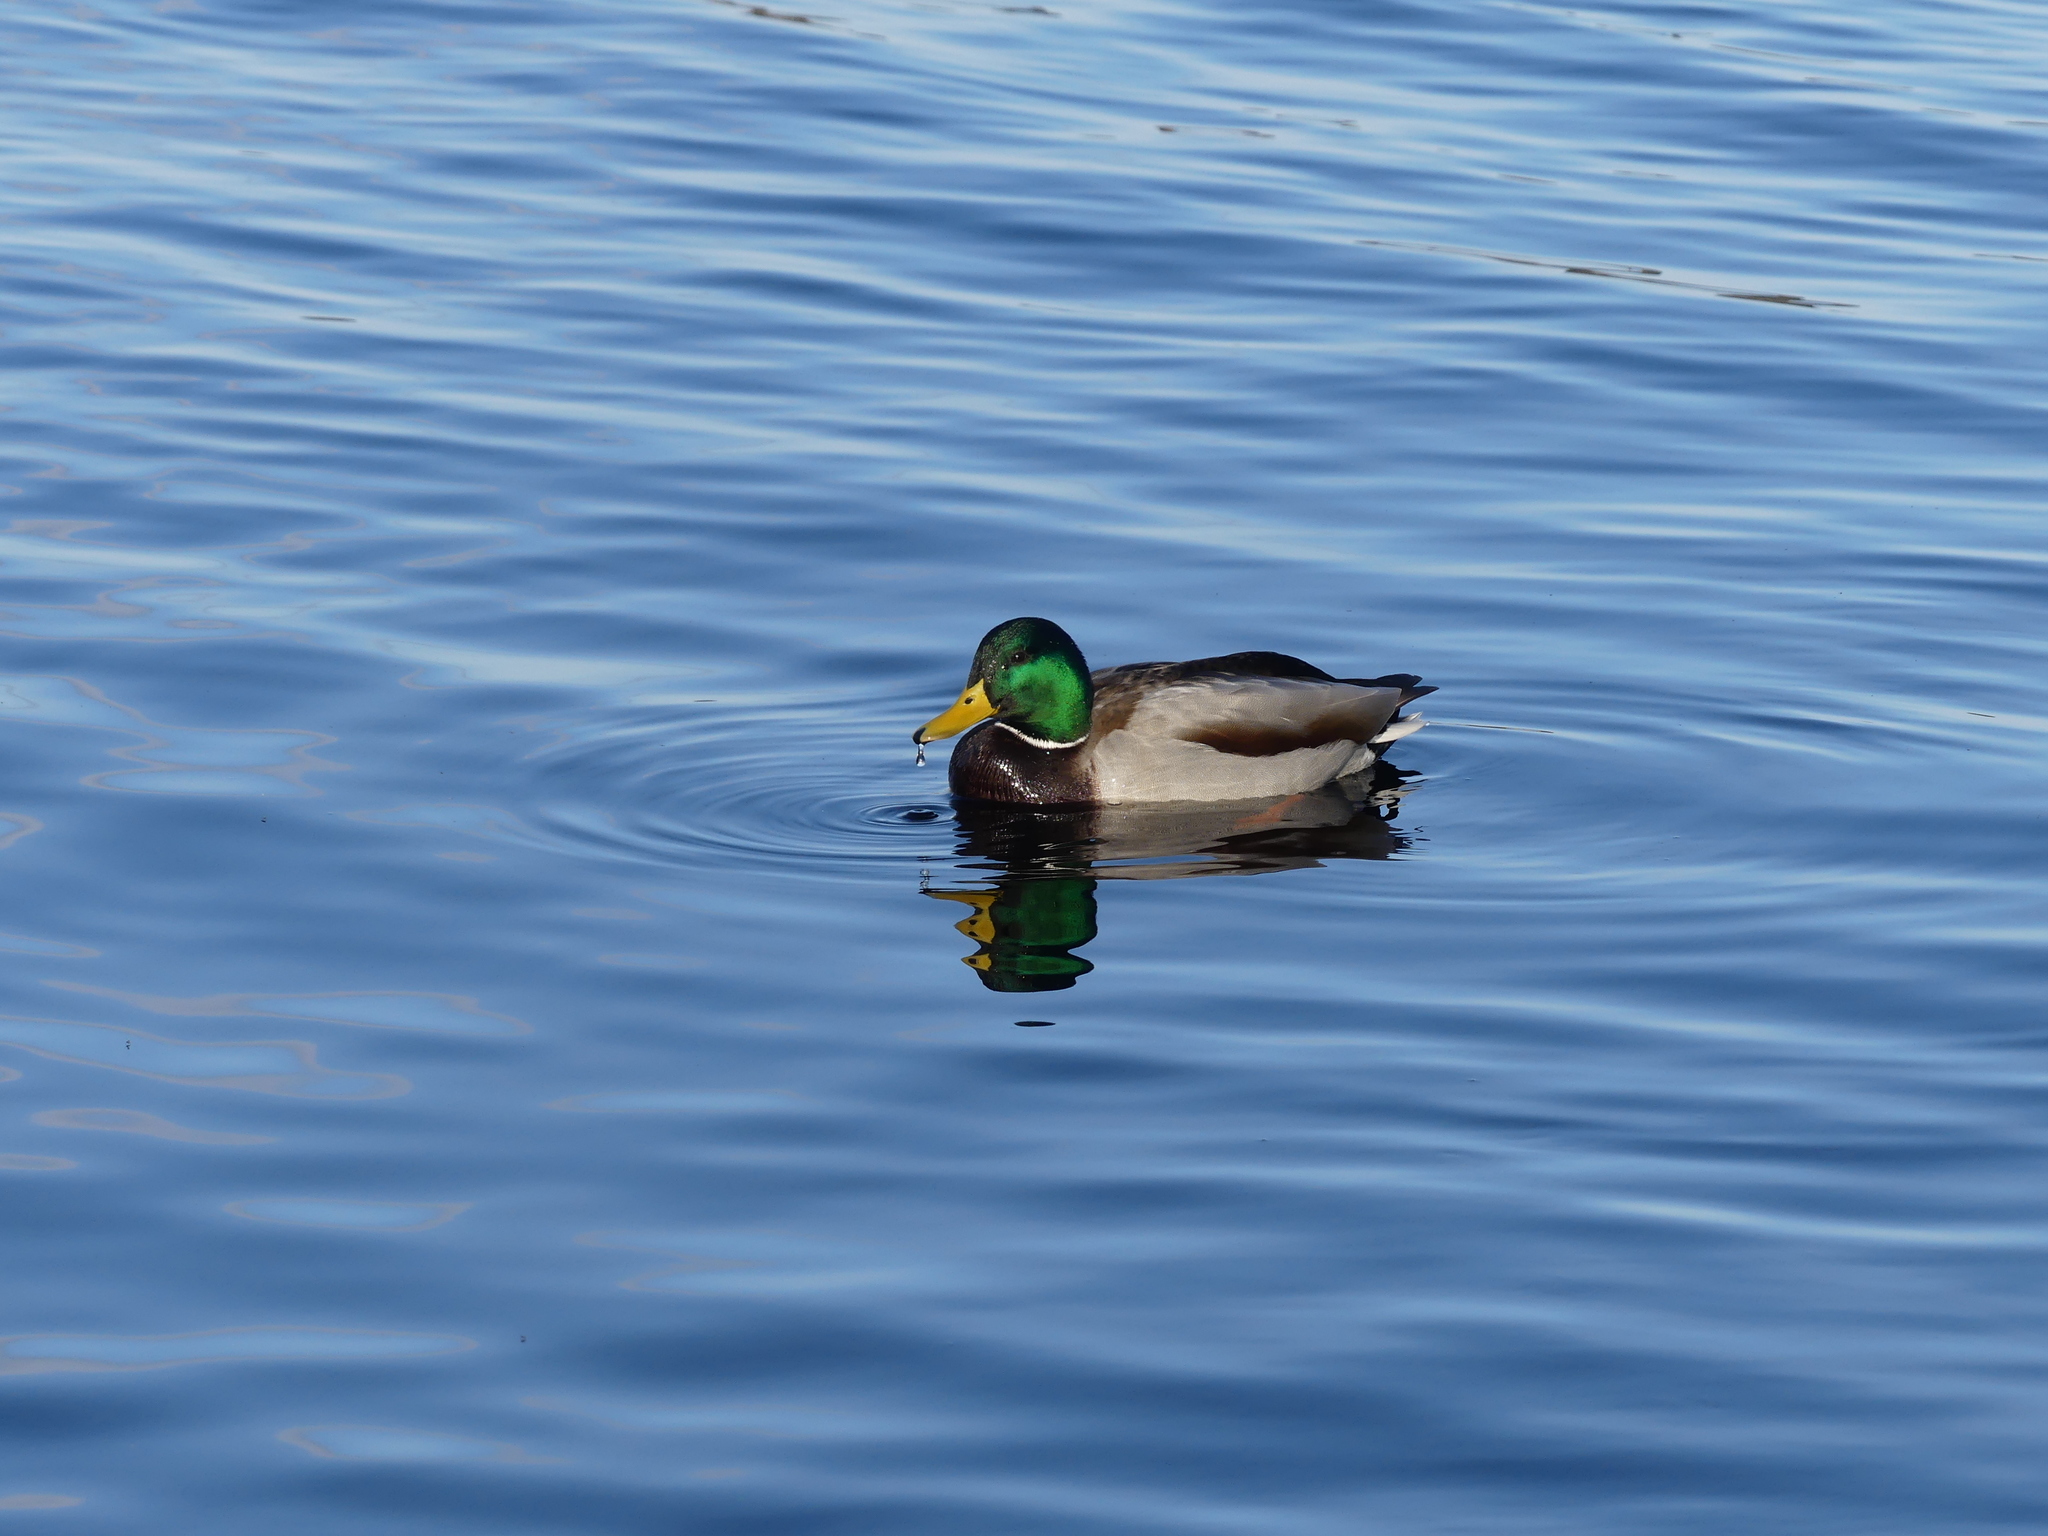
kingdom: Animalia
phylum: Chordata
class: Aves
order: Anseriformes
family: Anatidae
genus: Anas
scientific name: Anas platyrhynchos
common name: Mallard
